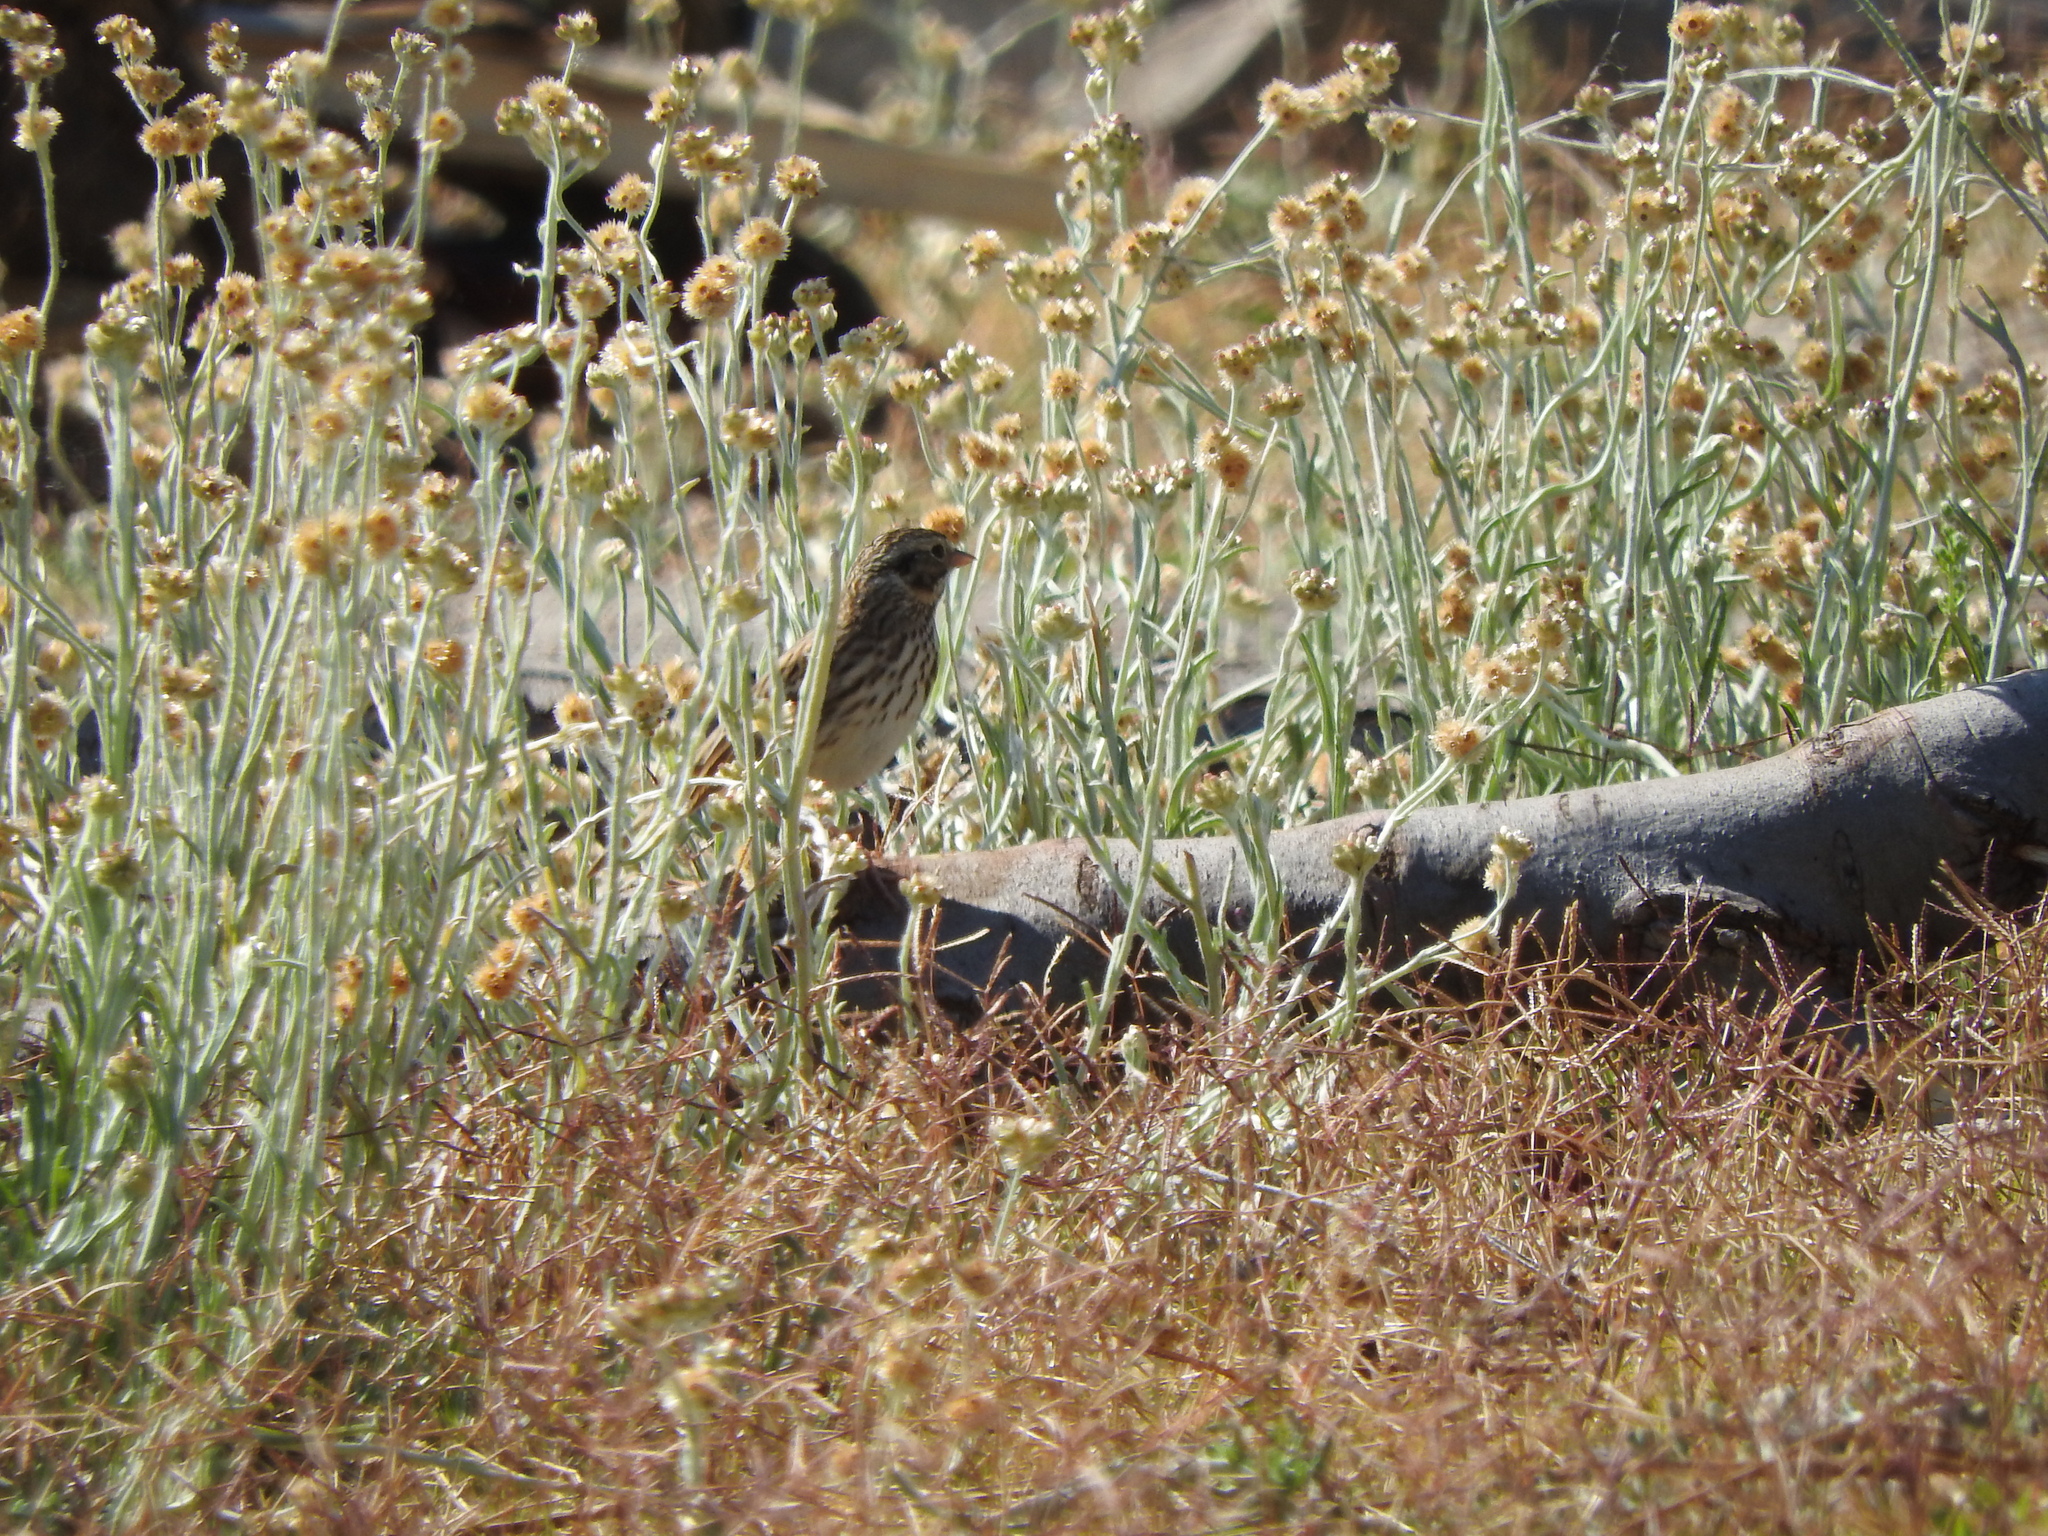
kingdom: Animalia
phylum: Chordata
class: Aves
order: Passeriformes
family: Passerellidae
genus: Passerculus
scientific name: Passerculus sandwichensis
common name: Savannah sparrow
